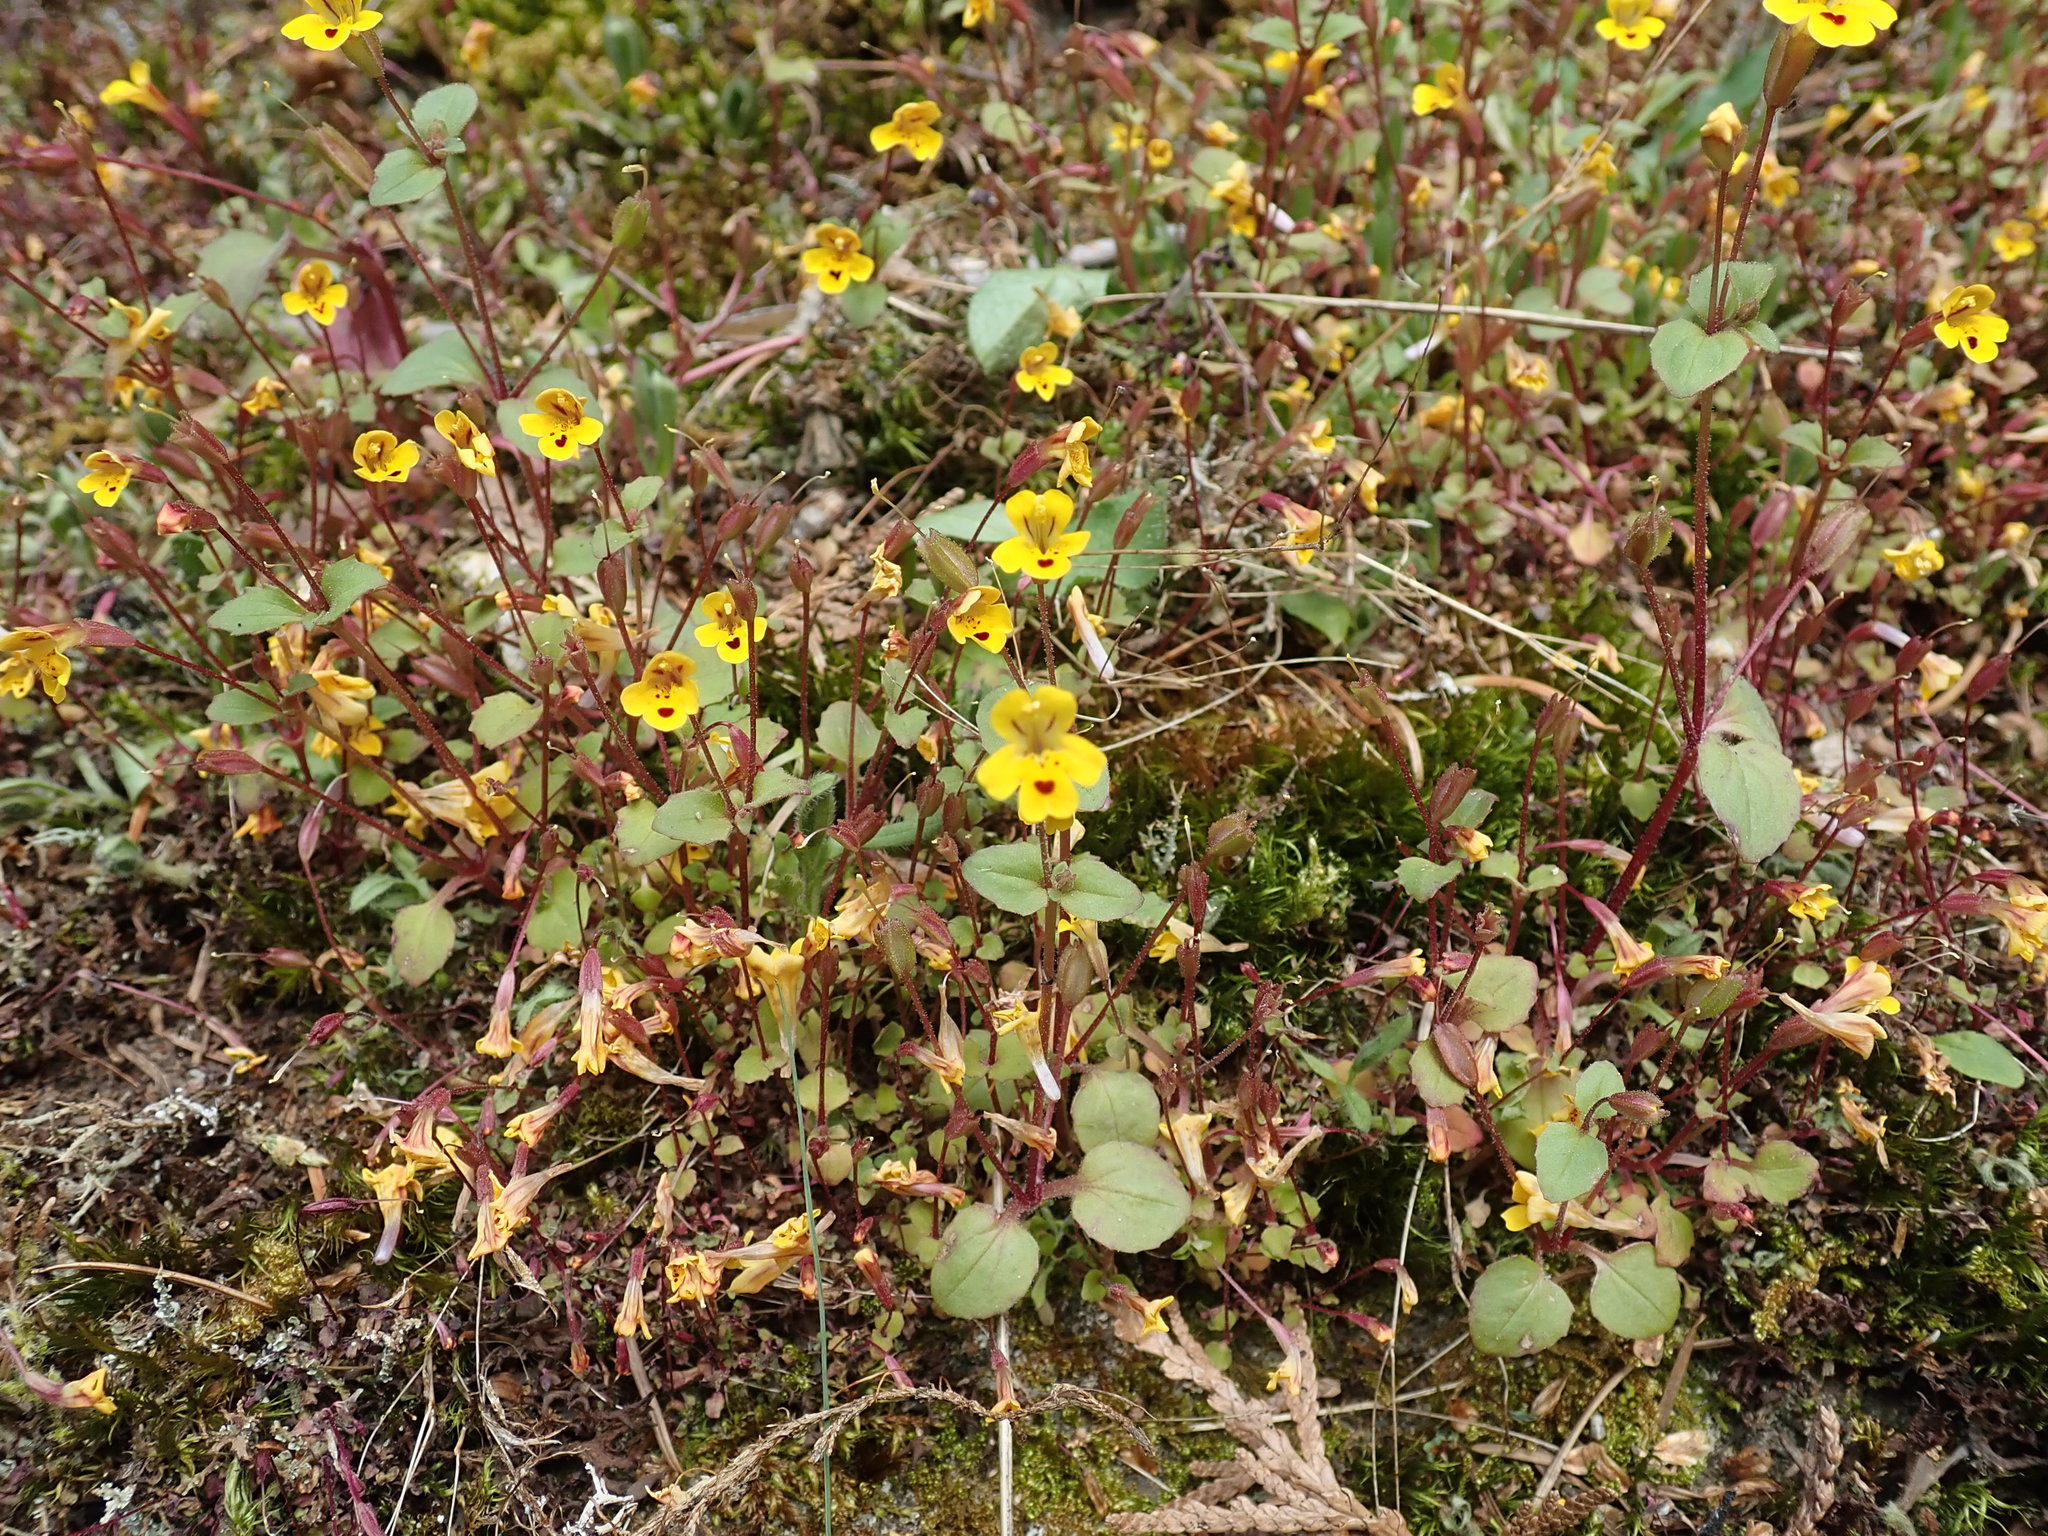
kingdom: Plantae
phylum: Tracheophyta
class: Magnoliopsida
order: Lamiales
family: Phrymaceae
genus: Erythranthe
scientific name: Erythranthe alsinoides
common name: Chickweed monkeyflower
